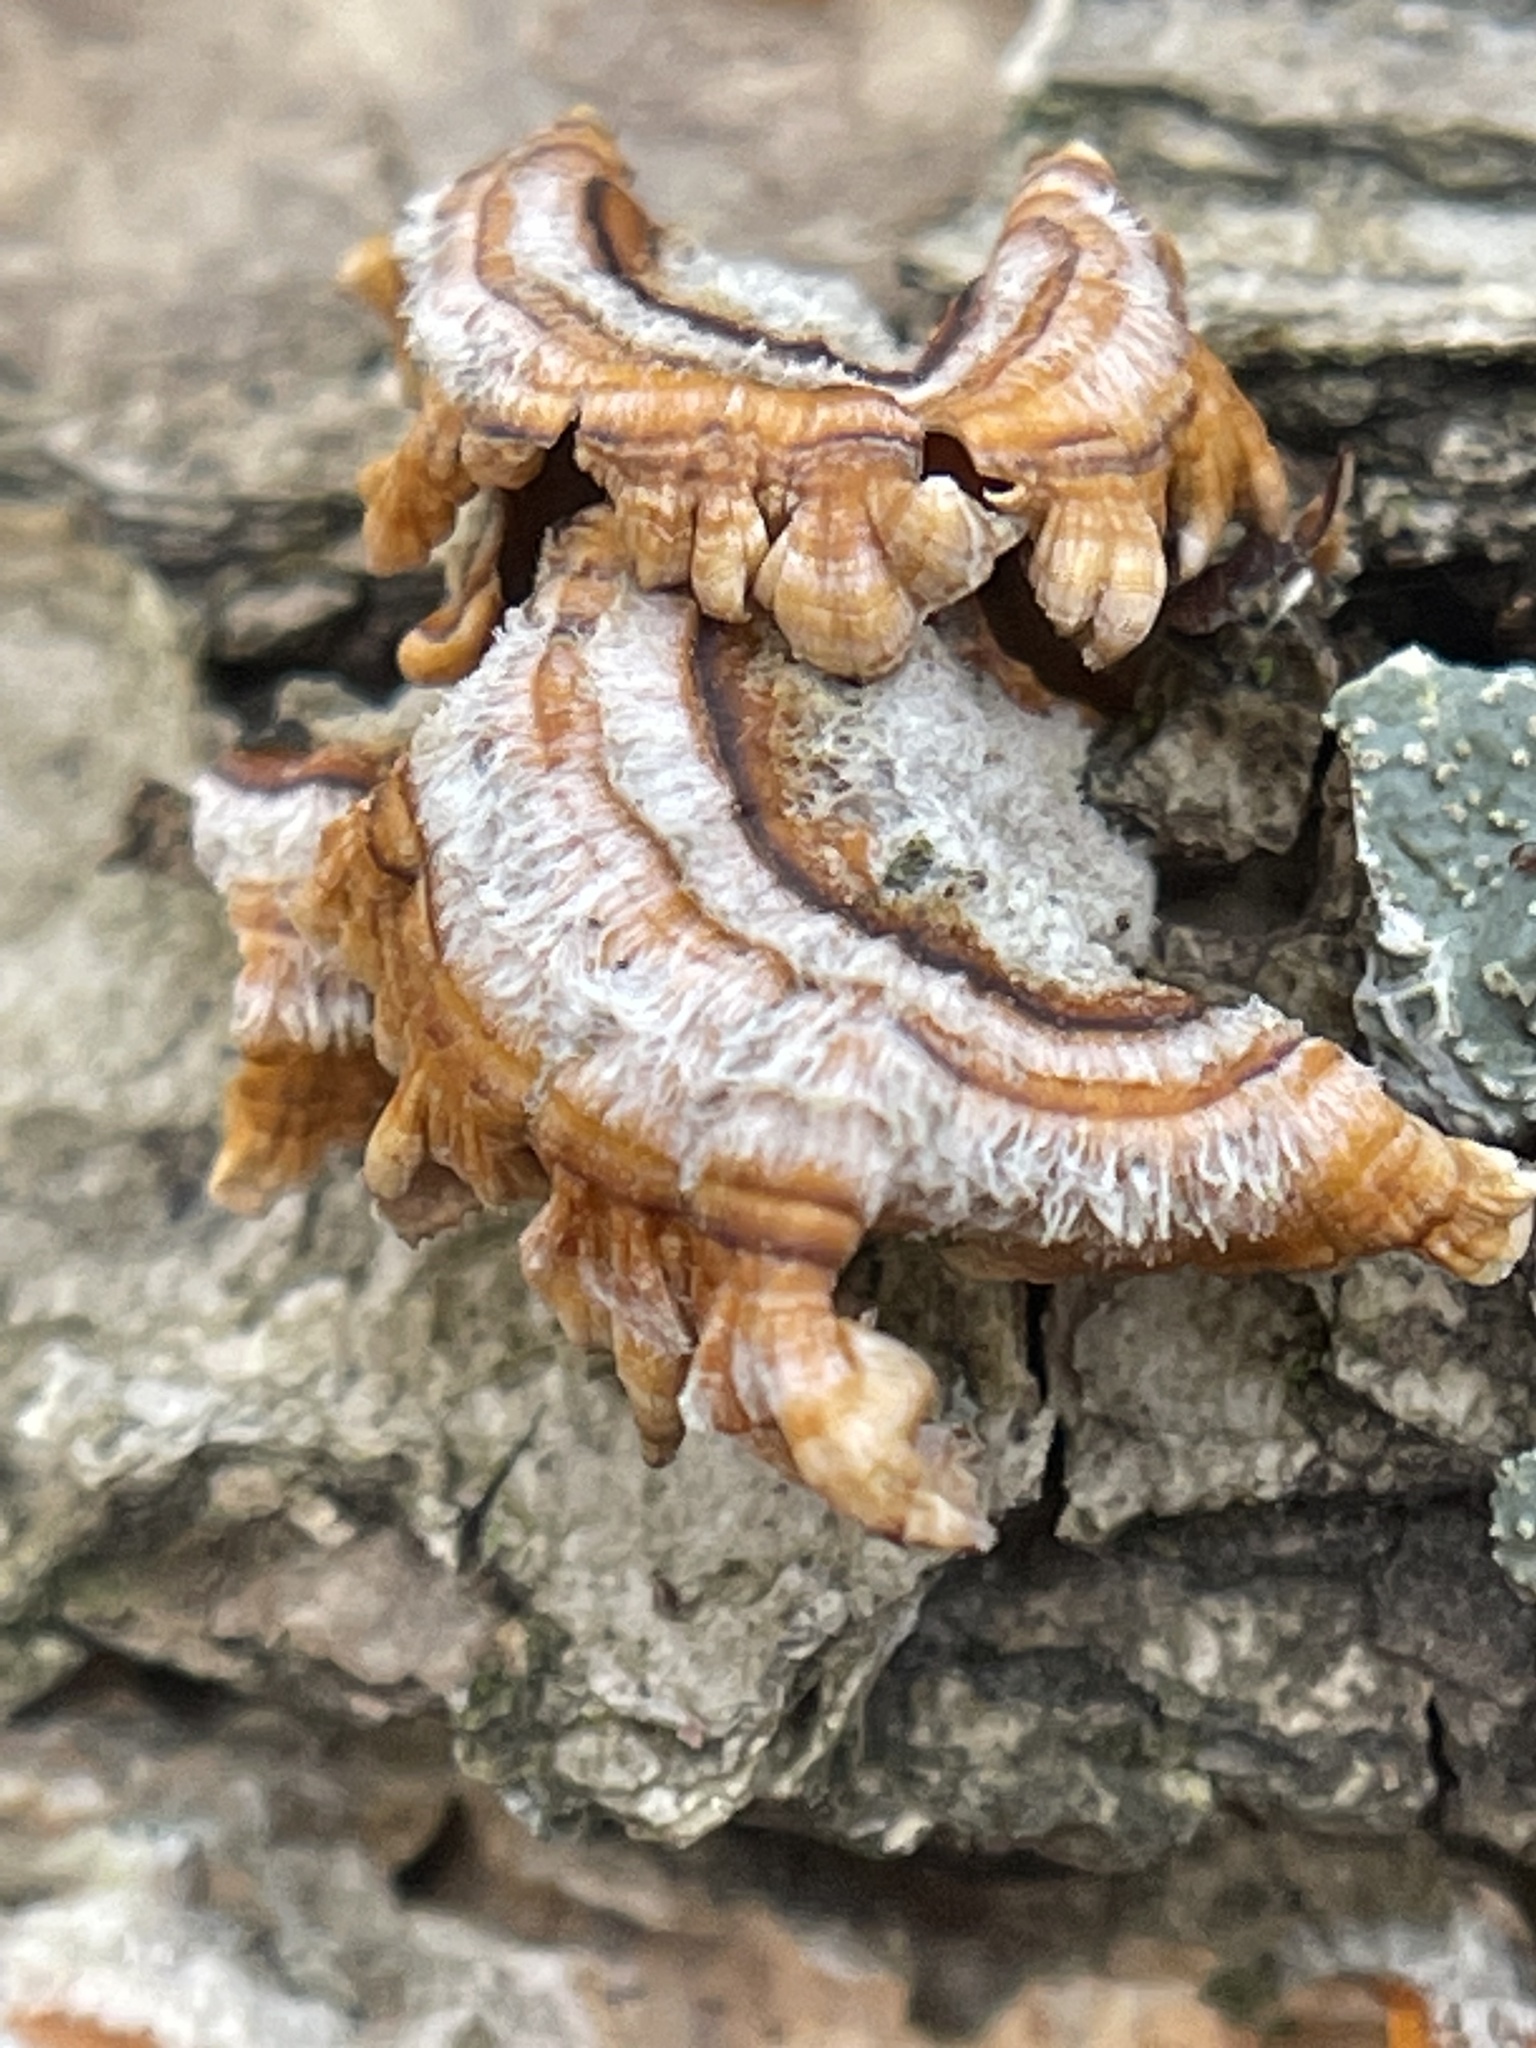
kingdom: Fungi
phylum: Basidiomycota
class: Agaricomycetes
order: Russulales
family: Stereaceae
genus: Stereum
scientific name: Stereum complicatum
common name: Crowded parchment
